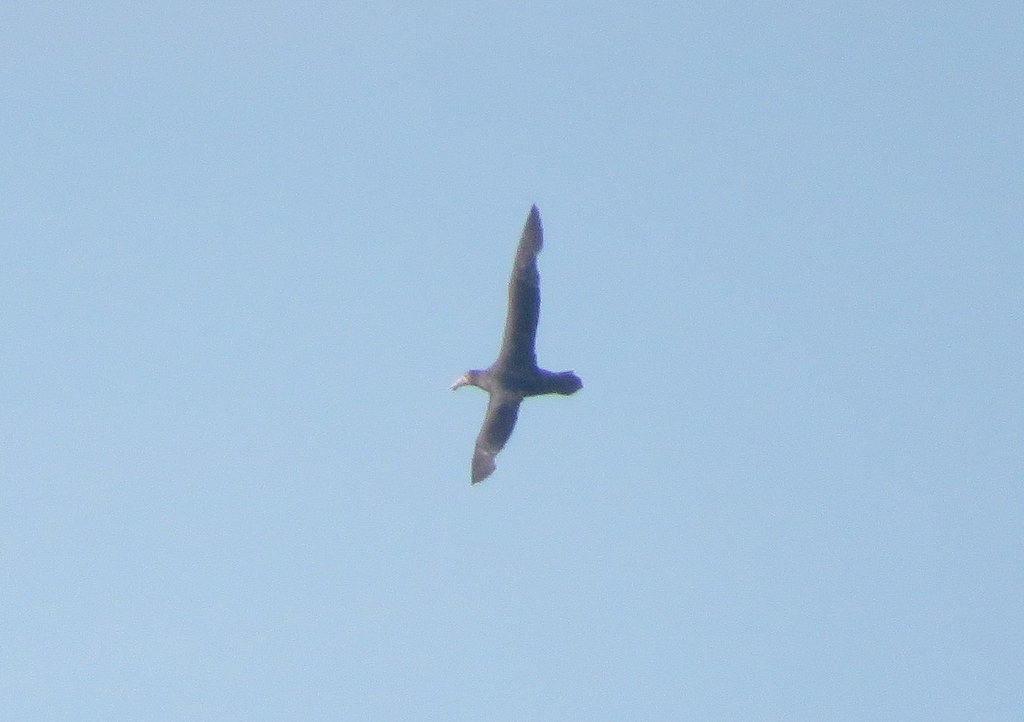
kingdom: Animalia
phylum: Chordata
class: Aves
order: Procellariiformes
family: Procellariidae
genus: Macronectes
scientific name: Macronectes giganteus
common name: Southern giant petrel
